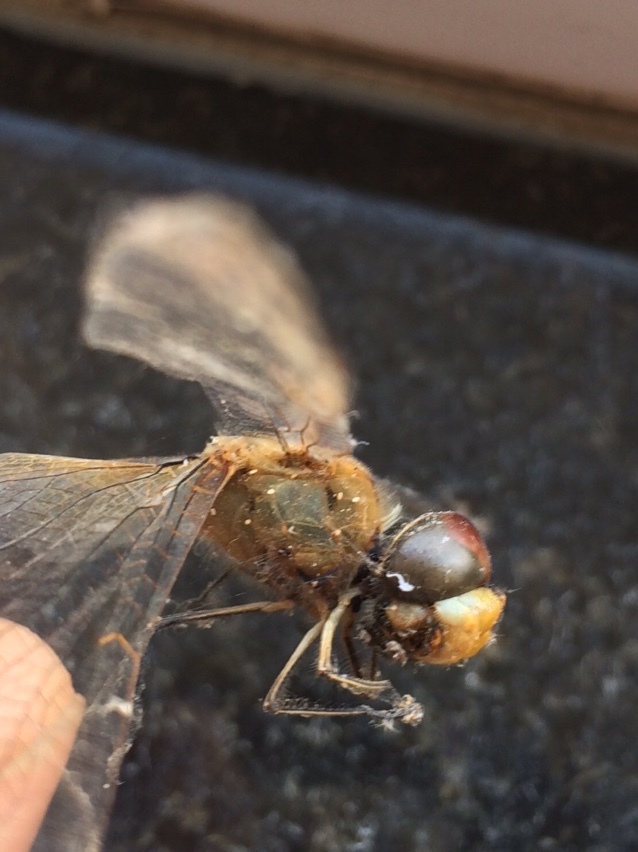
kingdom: Animalia
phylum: Arthropoda
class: Insecta
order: Odonata
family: Libellulidae
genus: Pantala
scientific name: Pantala flavescens
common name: Wandering glider
